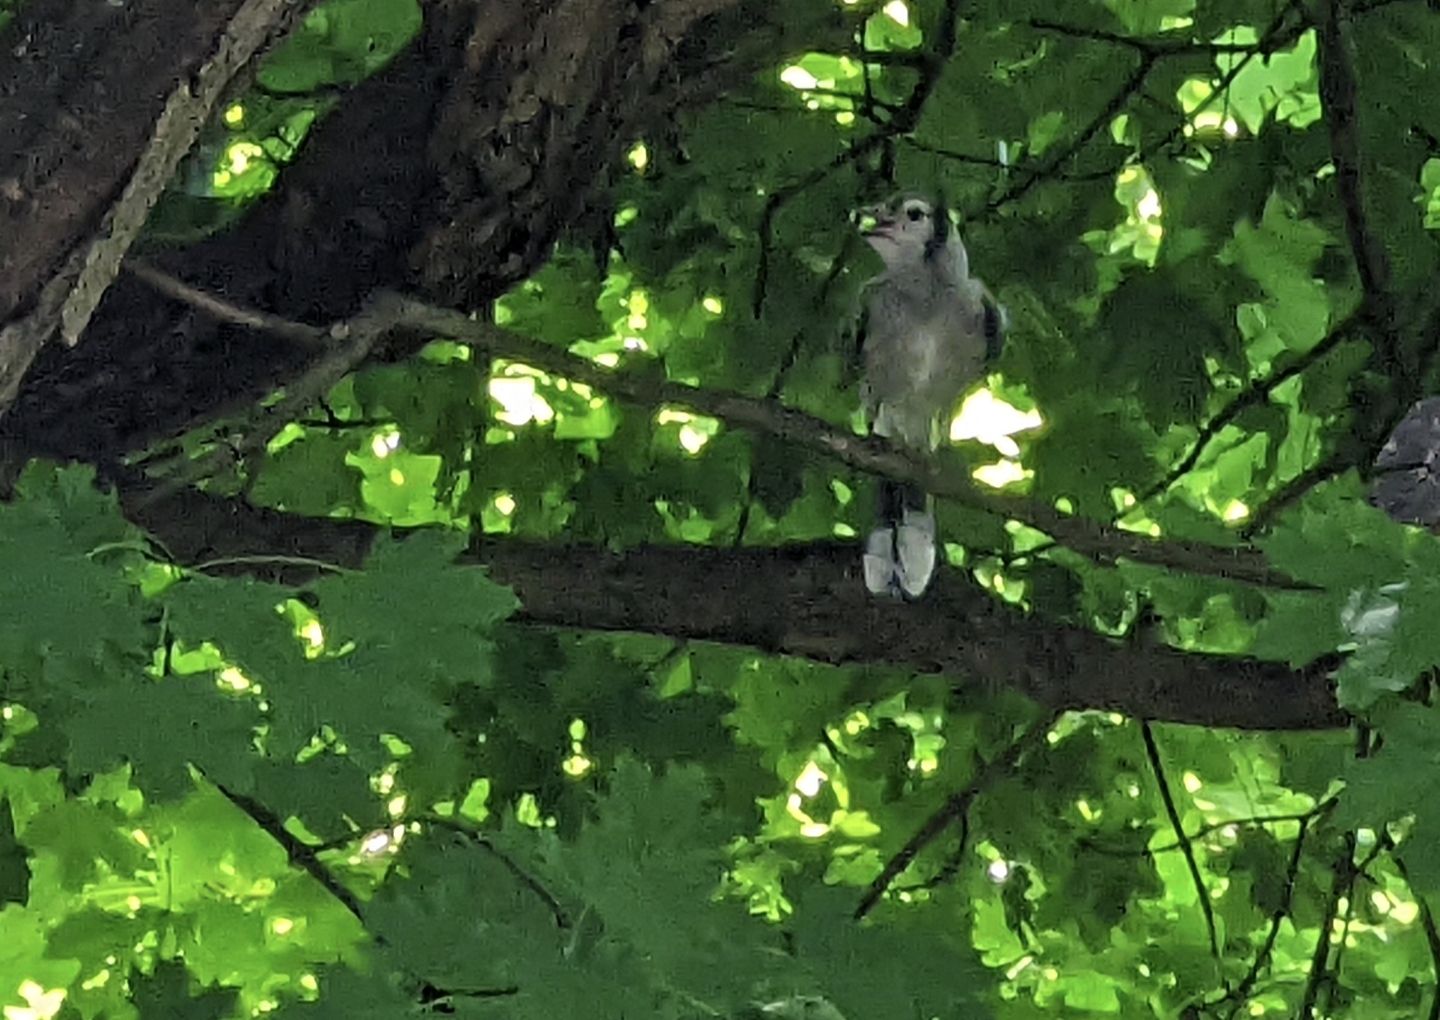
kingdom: Animalia
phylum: Chordata
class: Aves
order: Passeriformes
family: Corvidae
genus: Cyanocitta
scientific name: Cyanocitta cristata
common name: Blue jay
